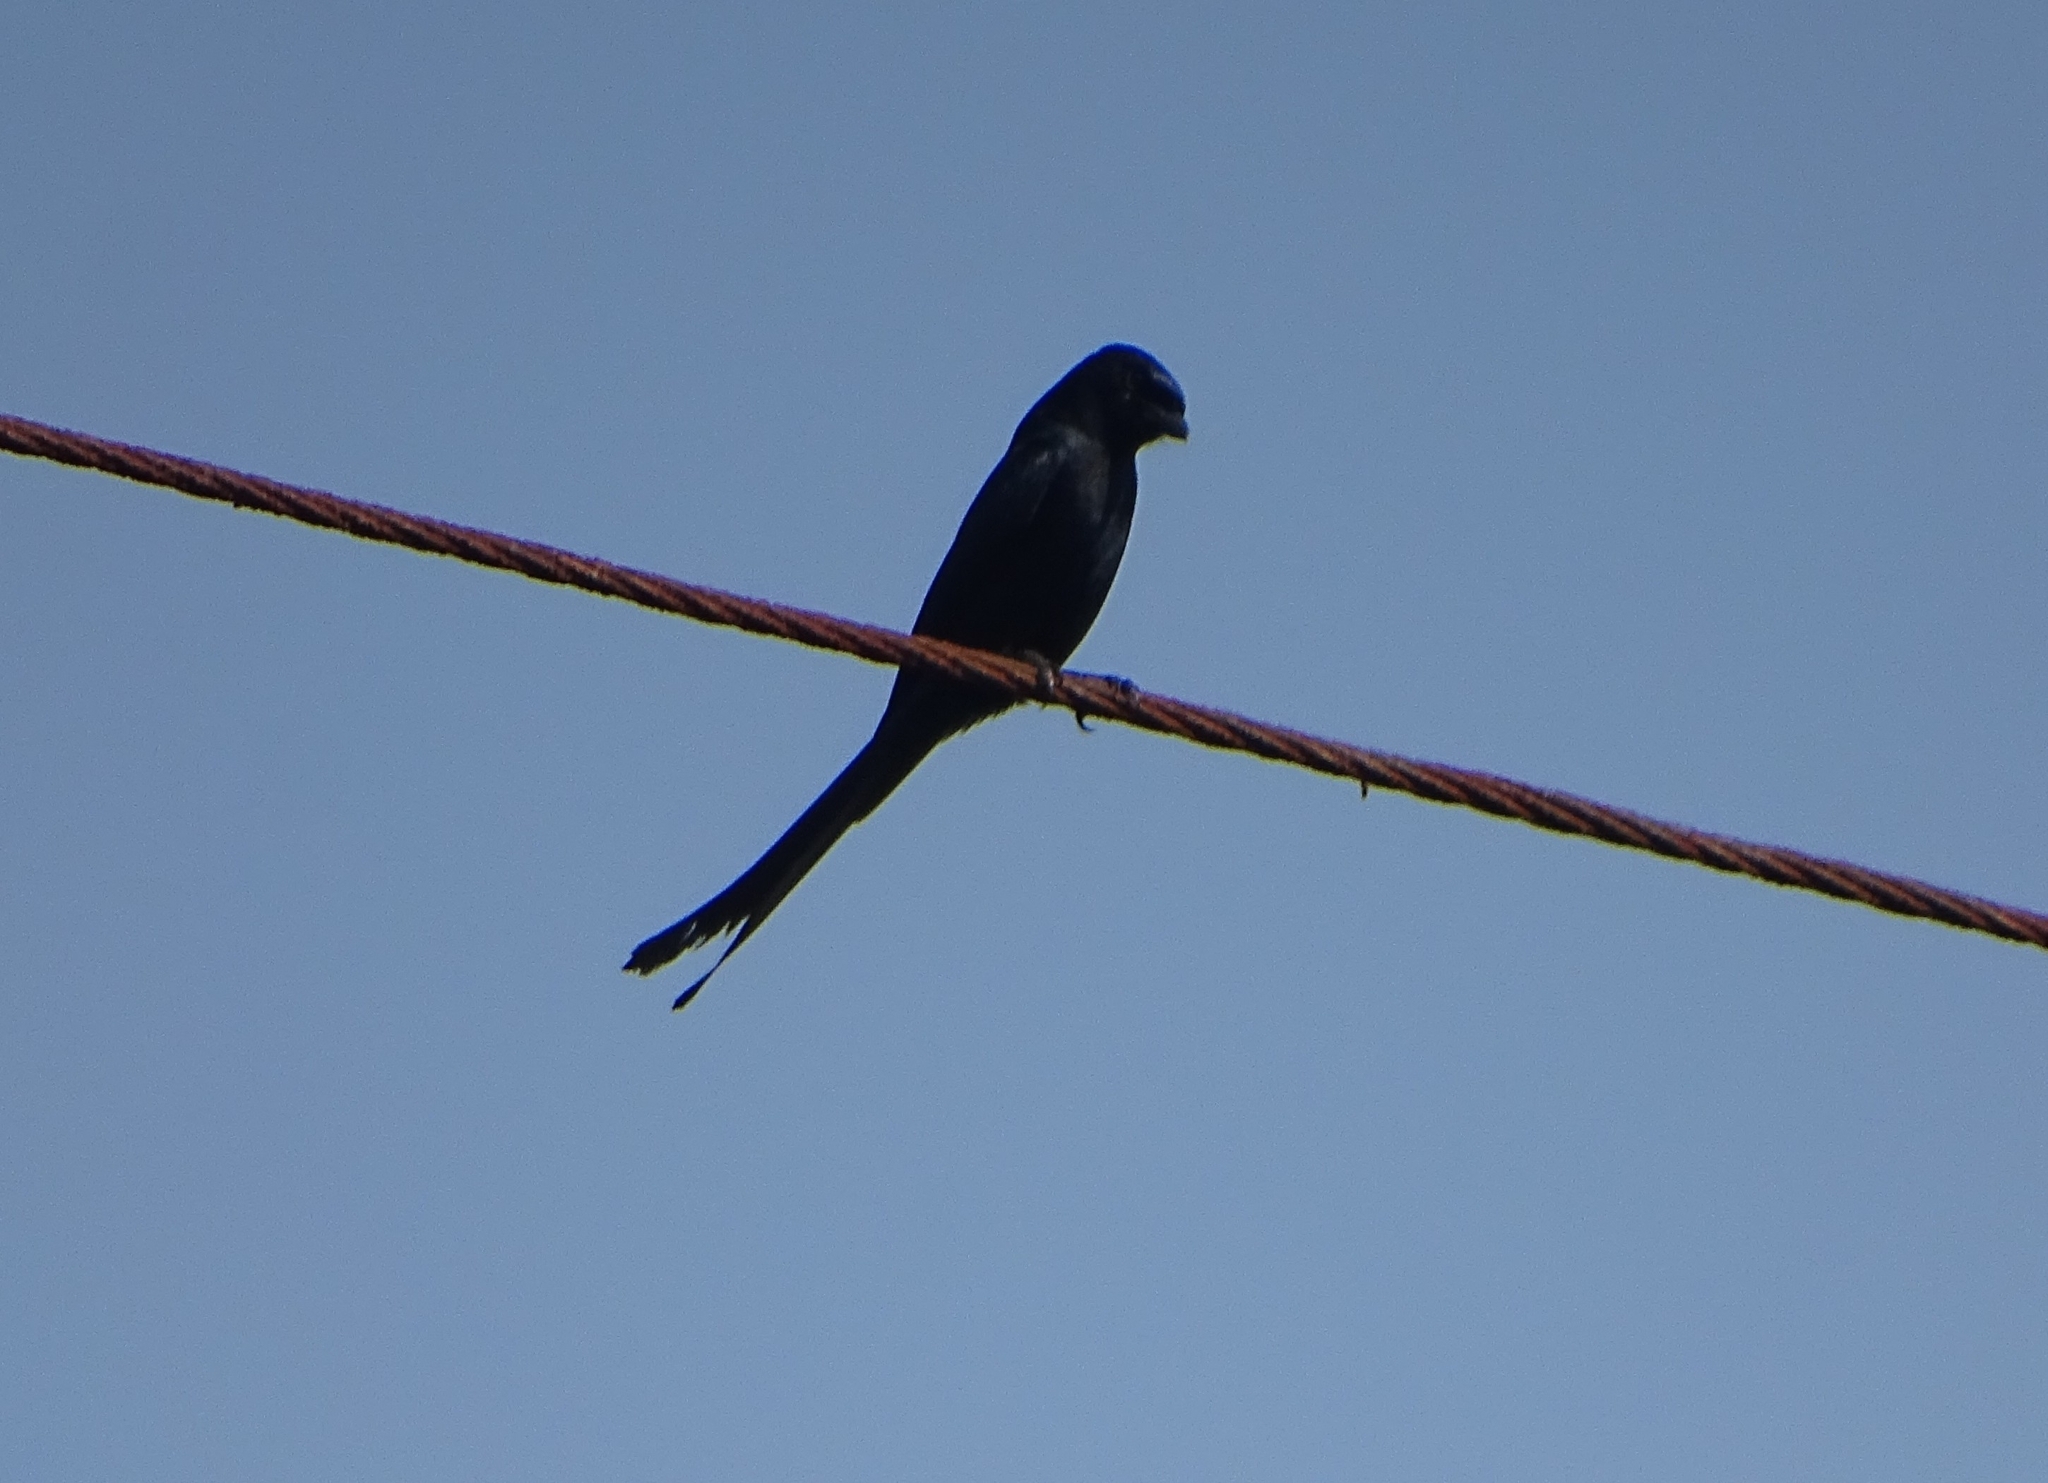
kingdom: Animalia
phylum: Chordata
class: Aves
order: Passeriformes
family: Dicruridae
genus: Dicrurus
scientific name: Dicrurus macrocercus
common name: Black drongo
